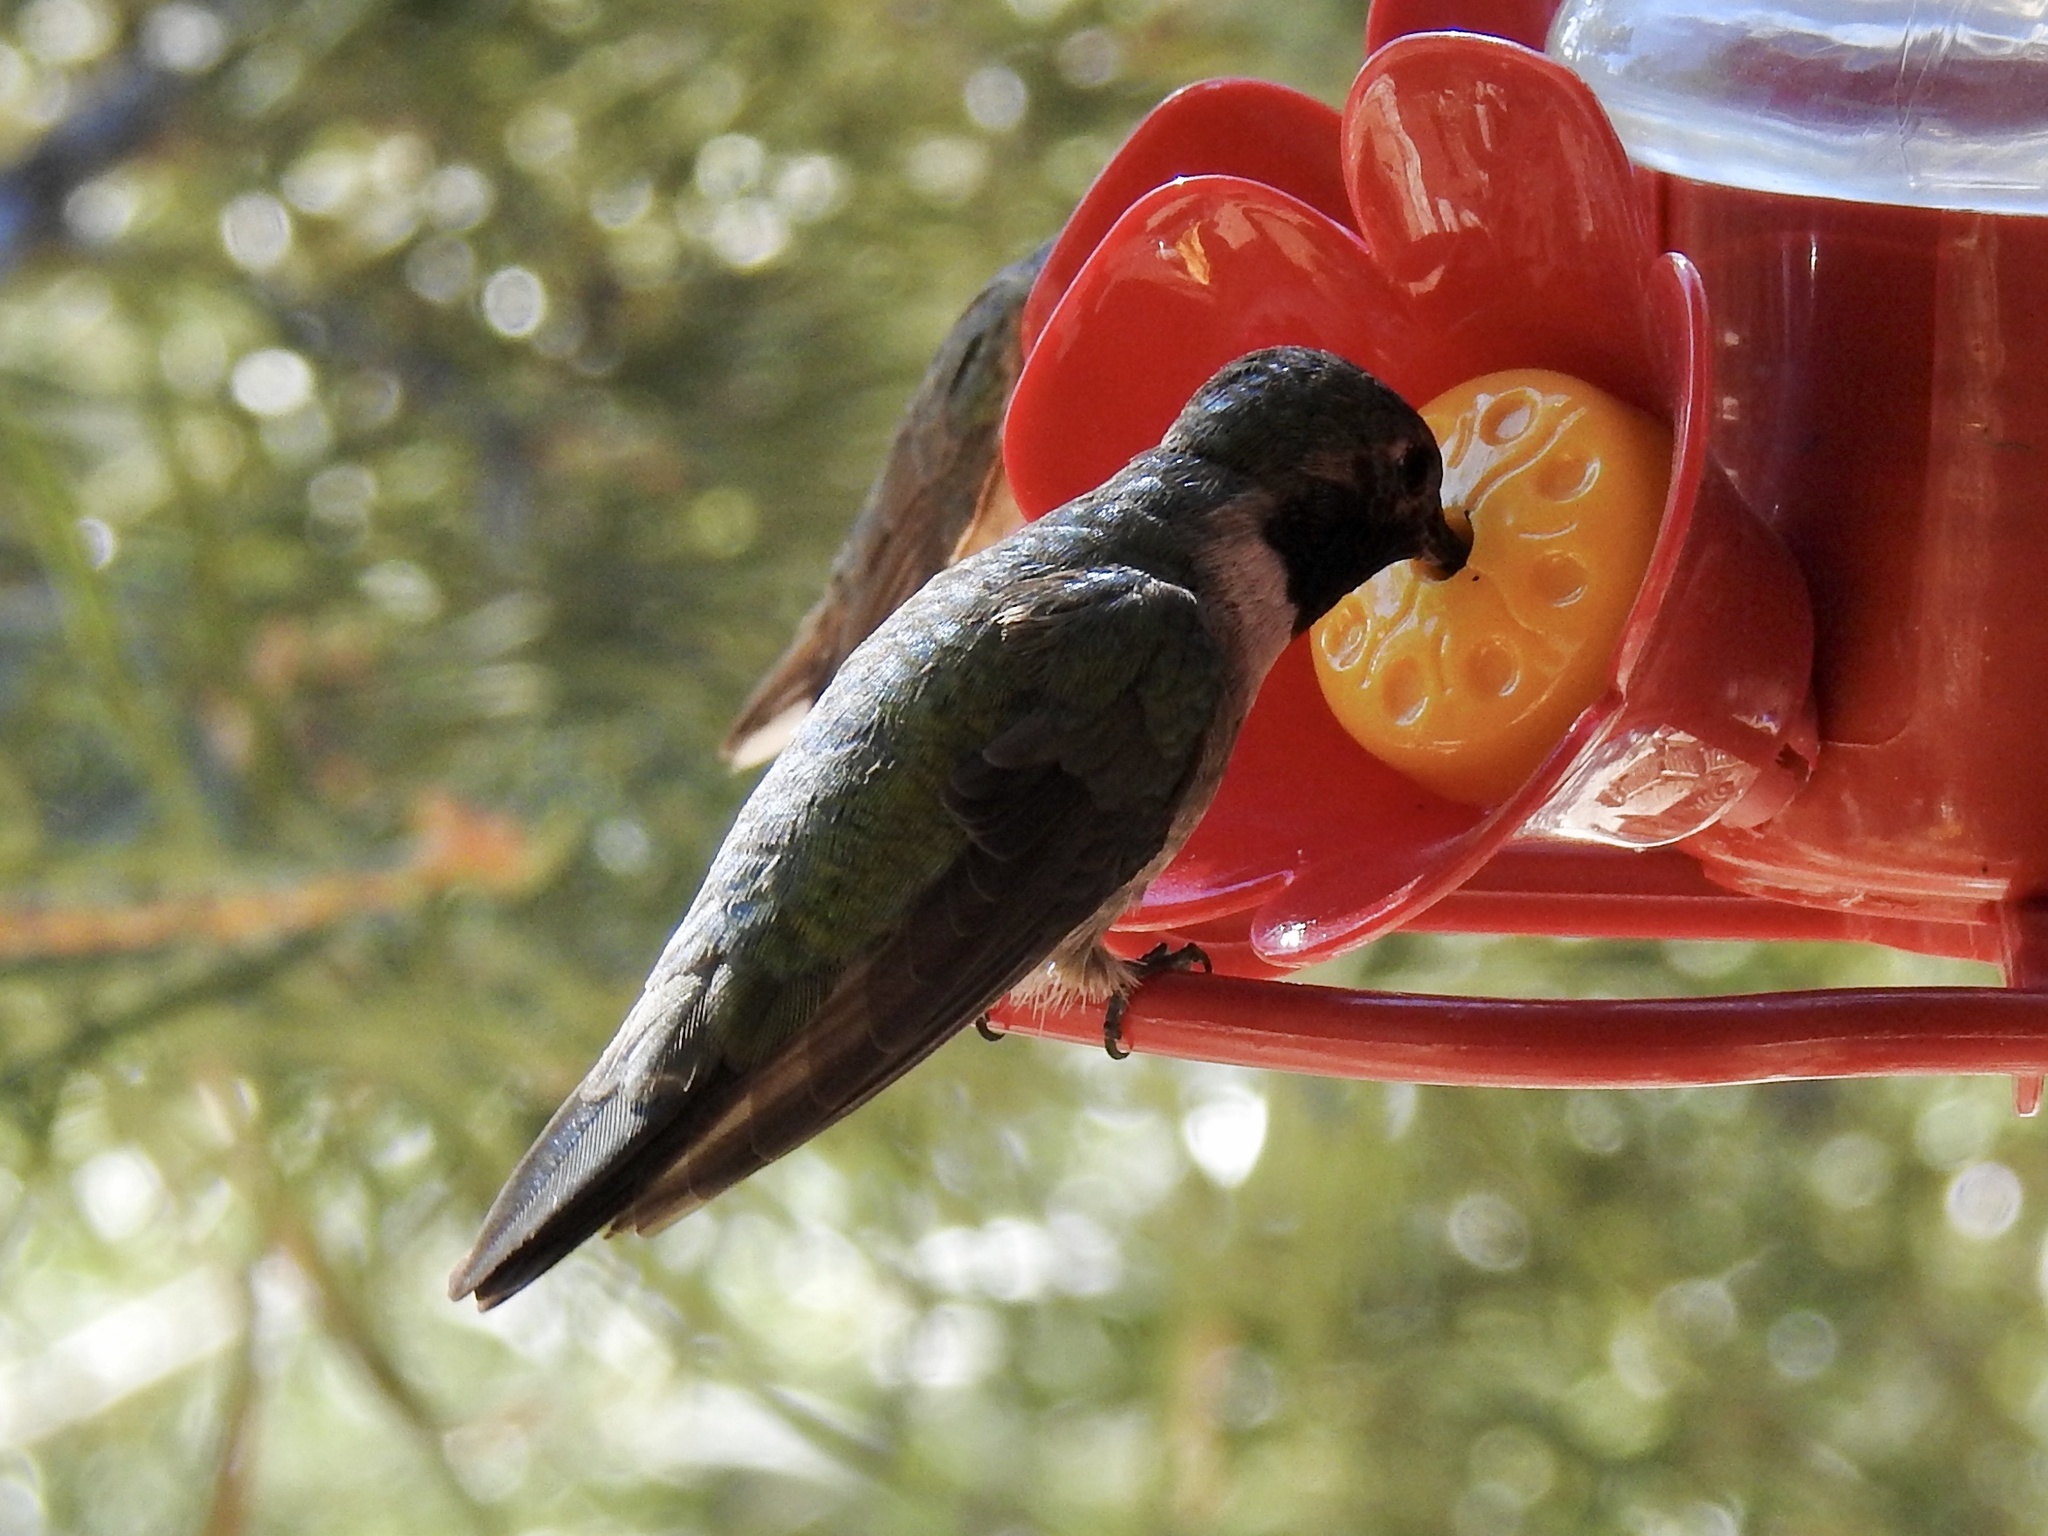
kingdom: Animalia
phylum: Chordata
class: Aves
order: Apodiformes
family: Trochilidae
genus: Selasphorus
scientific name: Selasphorus platycercus
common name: Broad-tailed hummingbird
